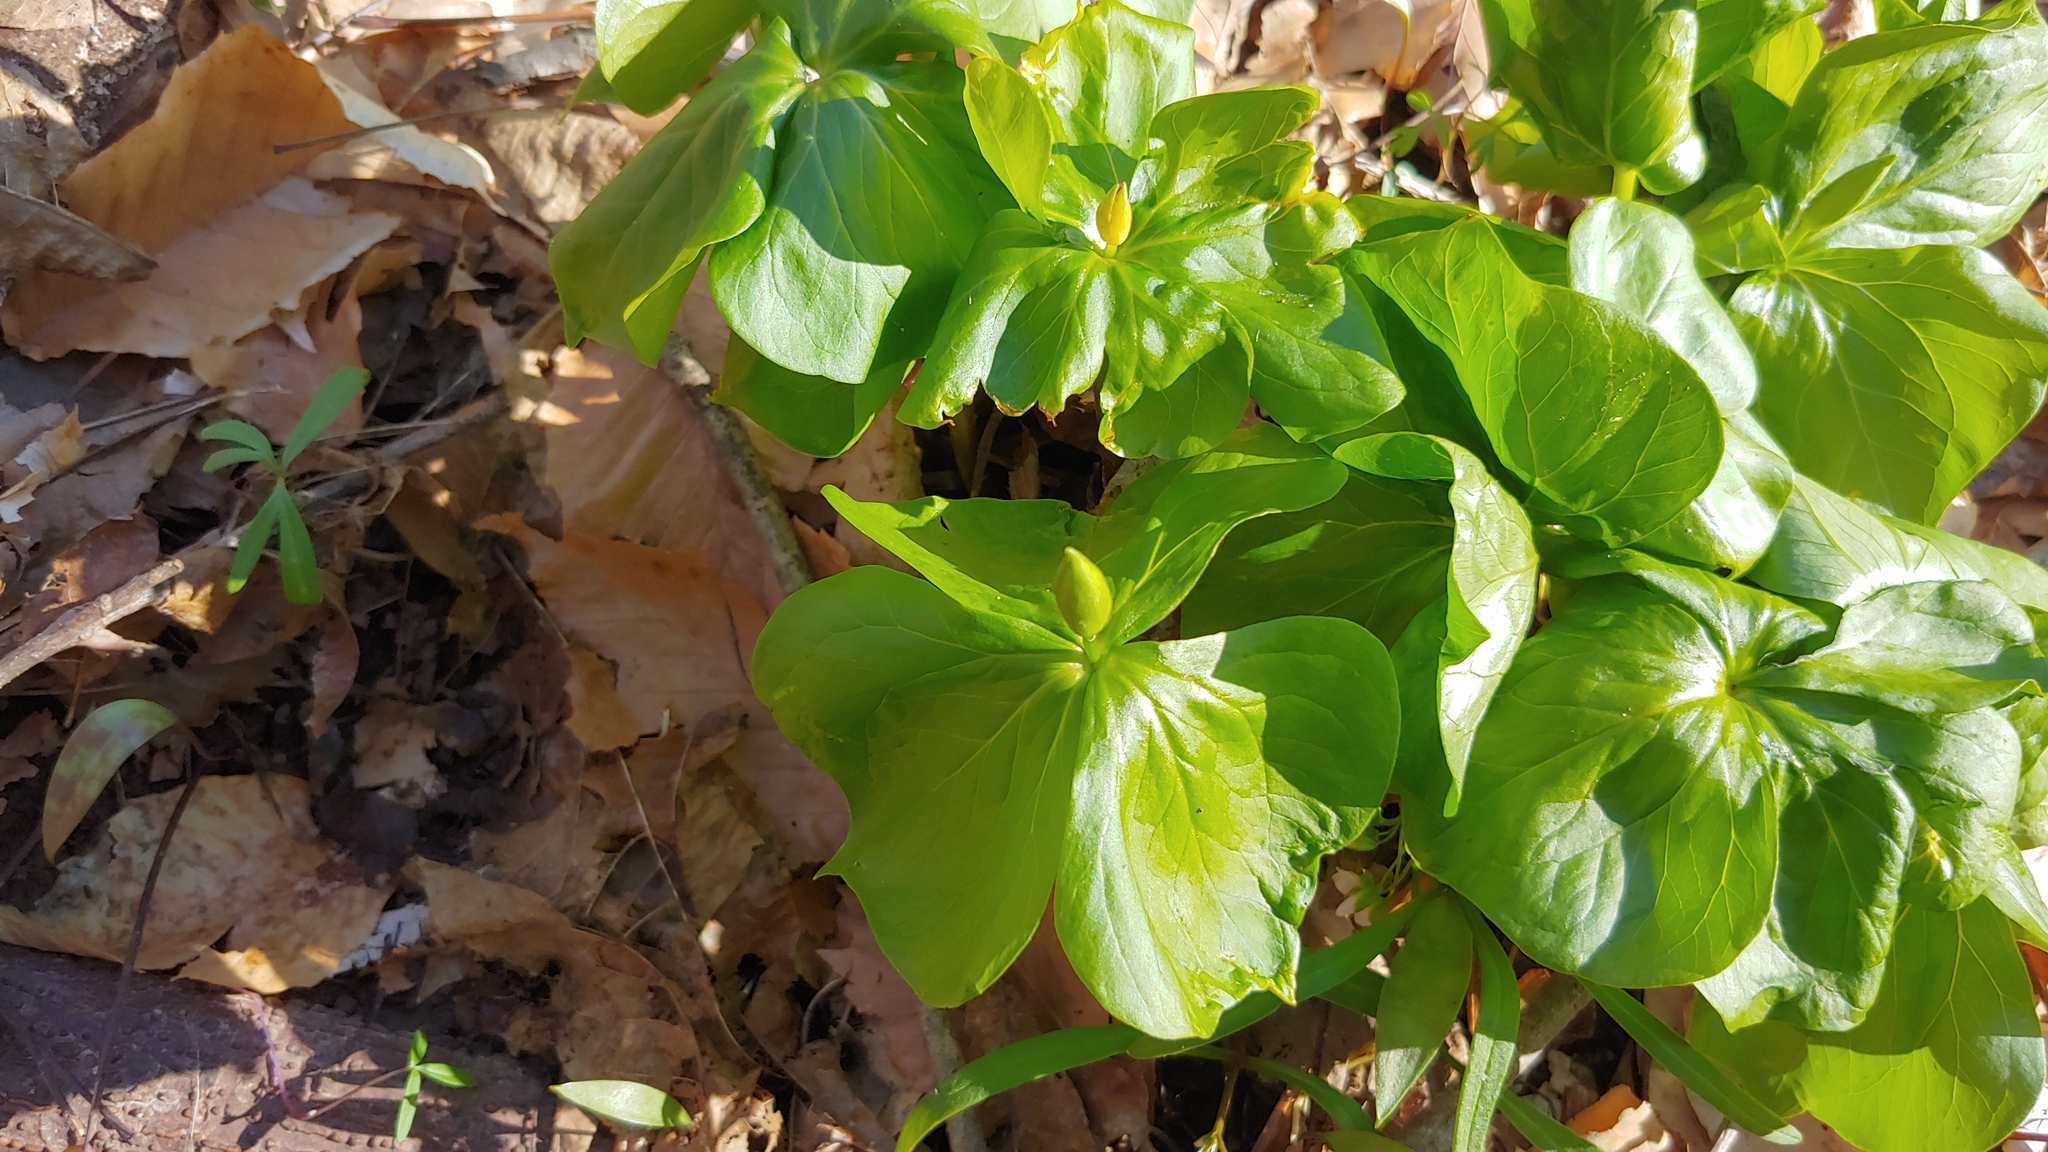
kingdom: Plantae
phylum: Tracheophyta
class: Liliopsida
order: Liliales
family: Melanthiaceae
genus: Trillium
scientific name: Trillium flexipes
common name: Drooping trillium
